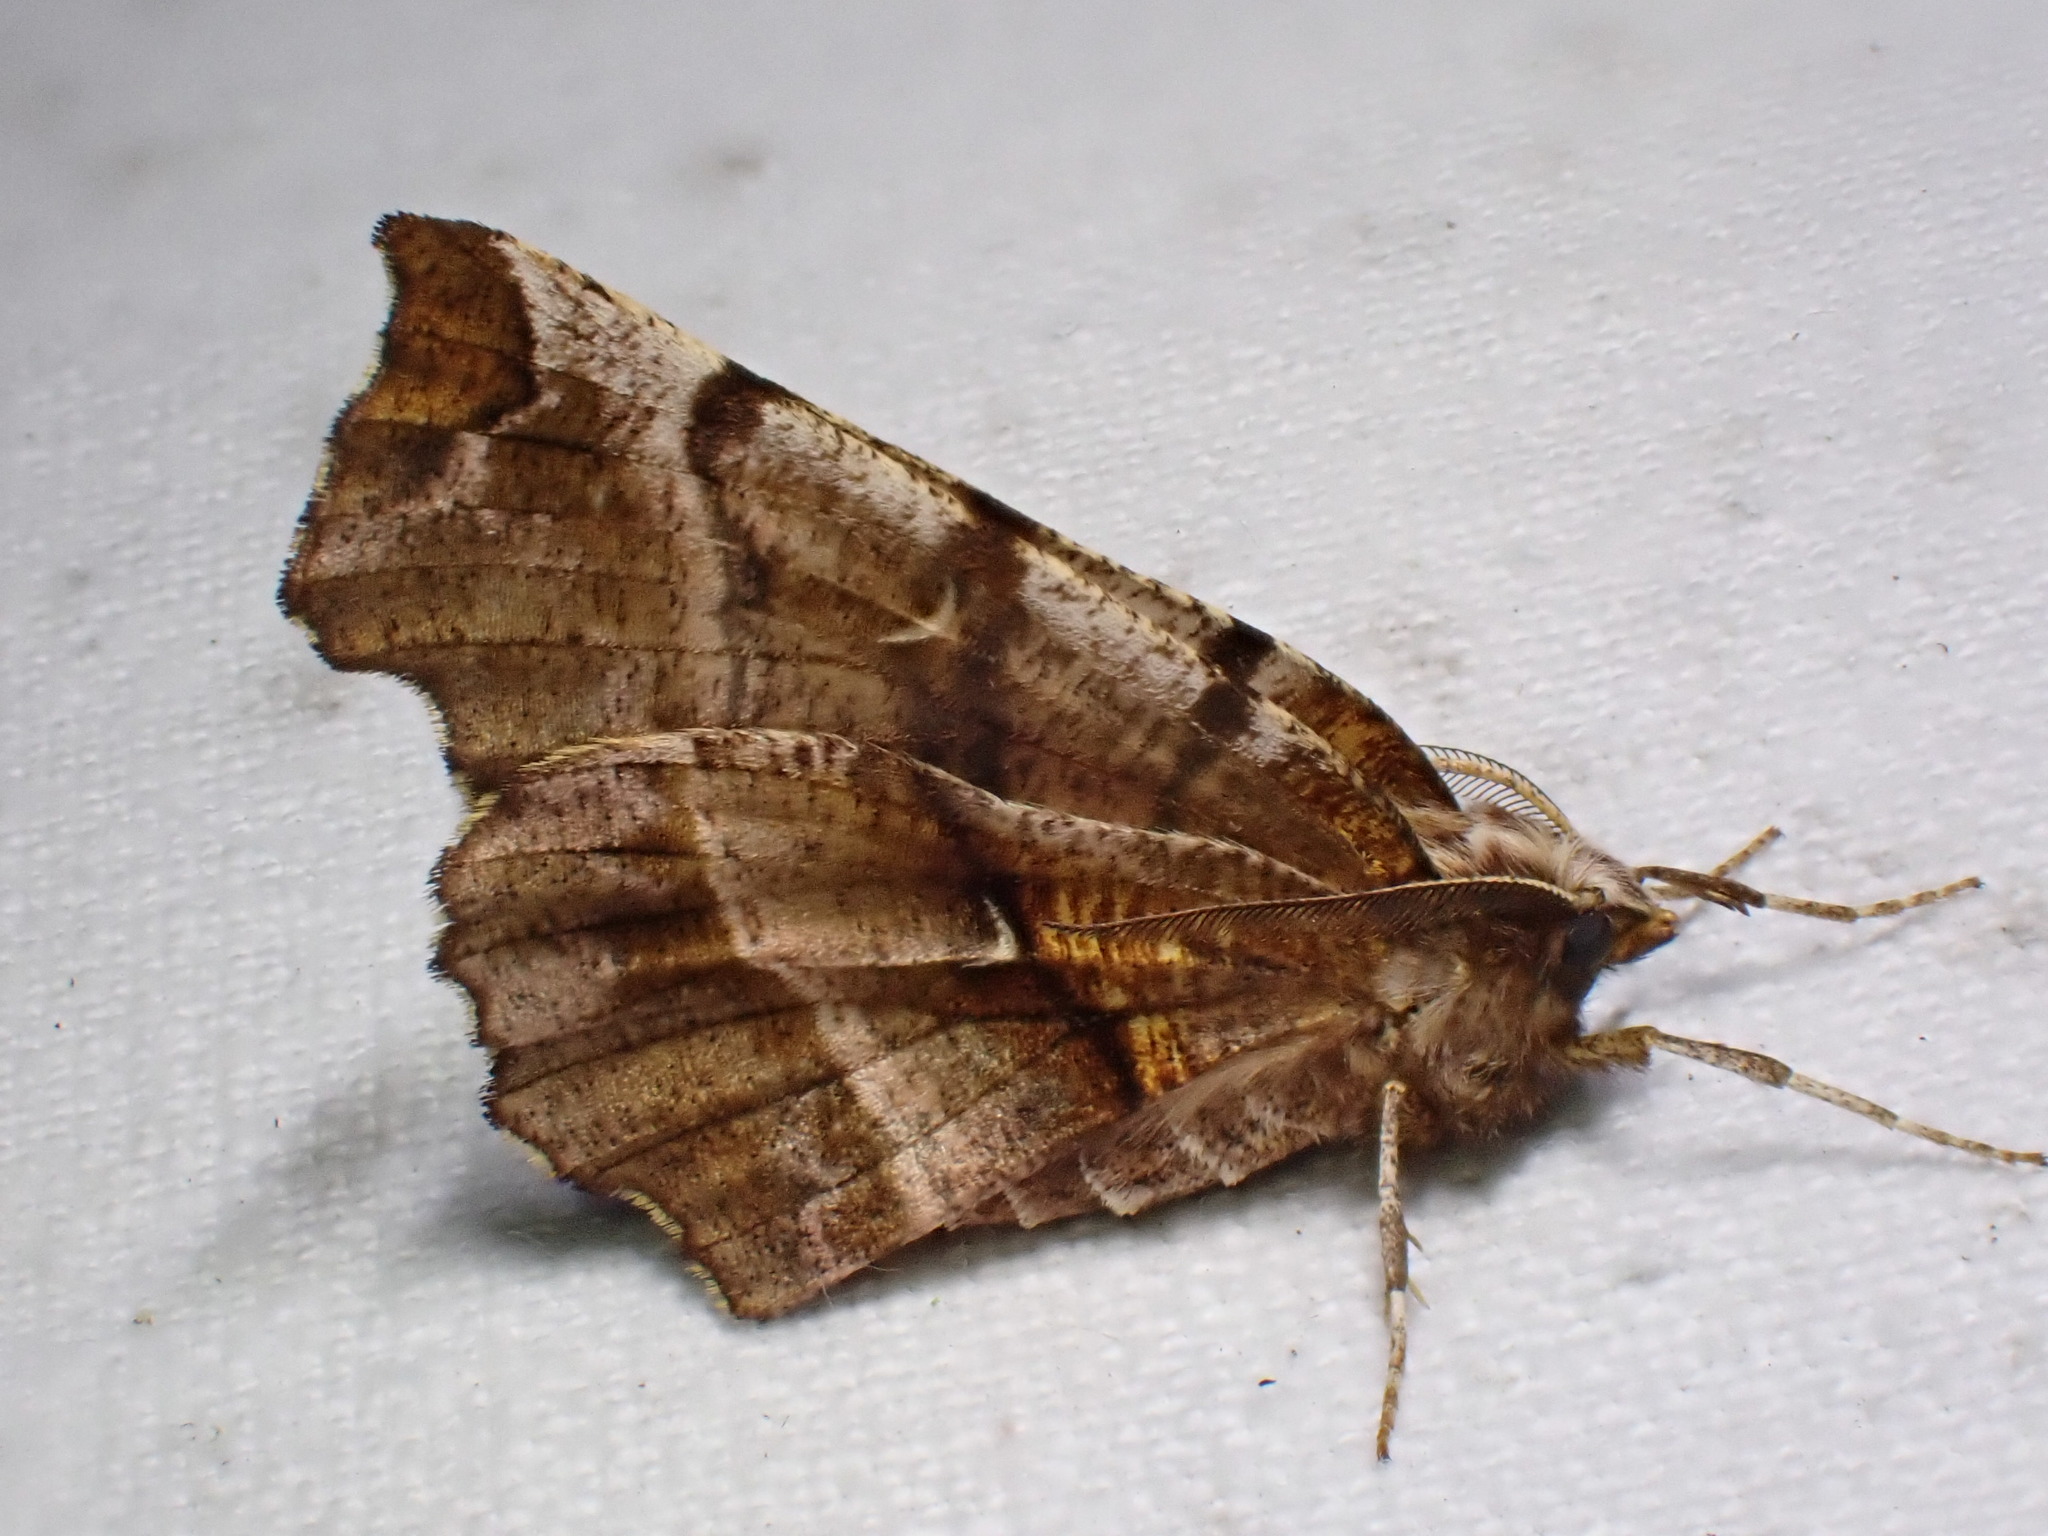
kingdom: Animalia
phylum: Arthropoda
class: Insecta
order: Lepidoptera
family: Geometridae
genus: Selenia
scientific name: Selenia dentaria
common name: Early thorn
